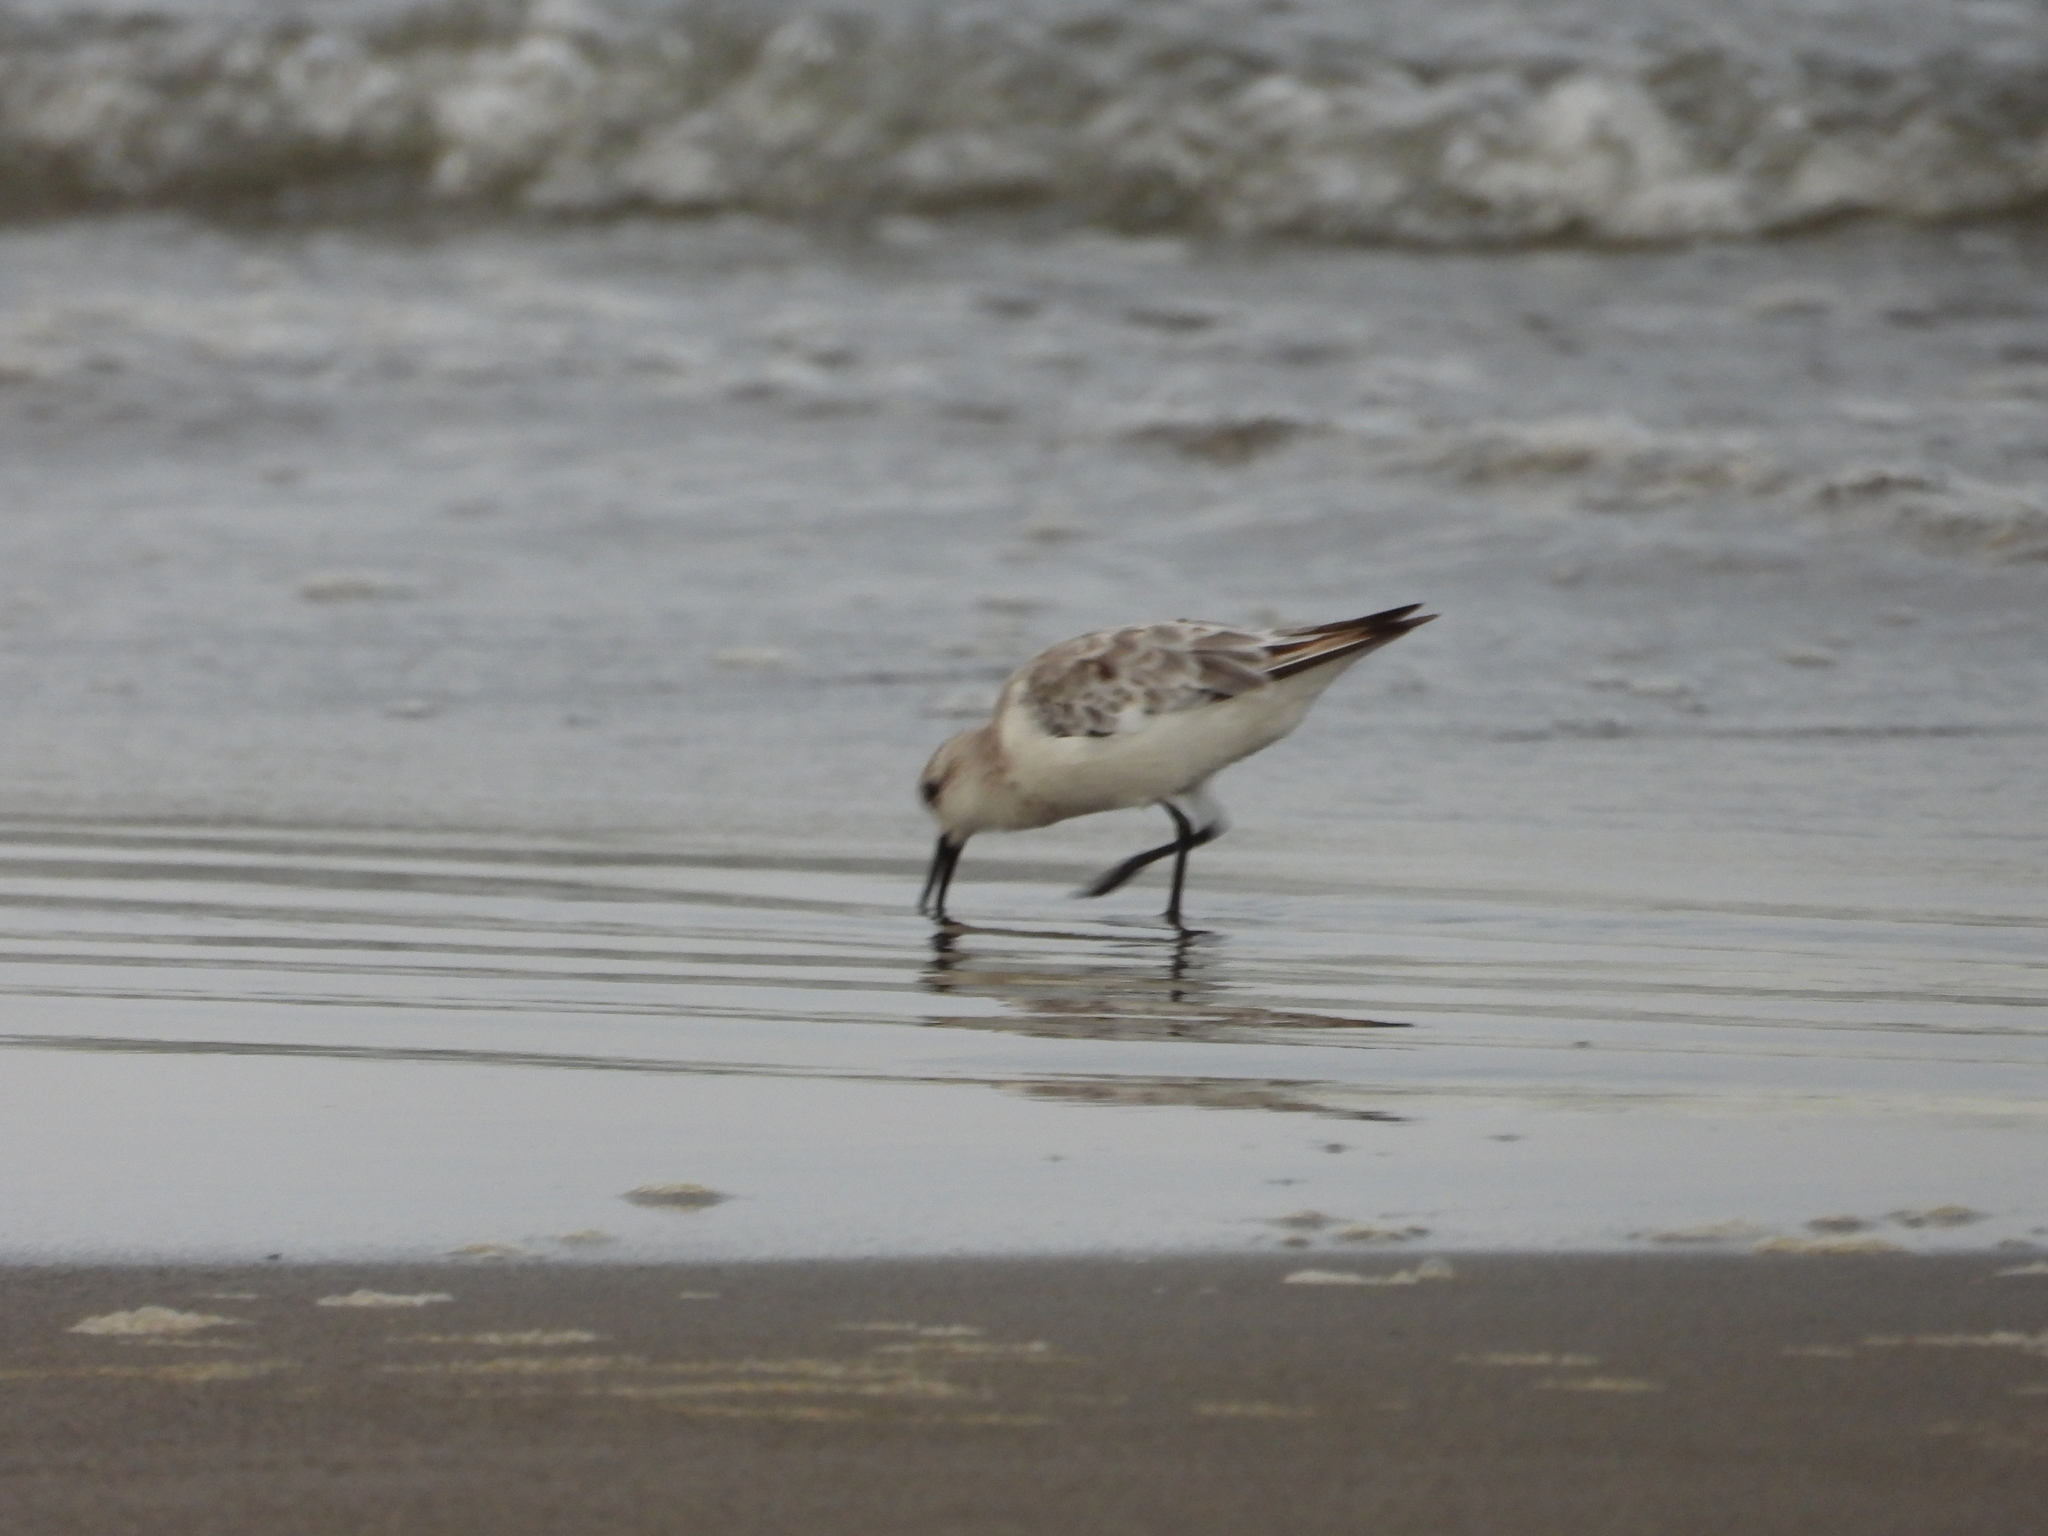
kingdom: Animalia
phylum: Chordata
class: Aves
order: Charadriiformes
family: Scolopacidae
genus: Calidris
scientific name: Calidris alba
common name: Sanderling
